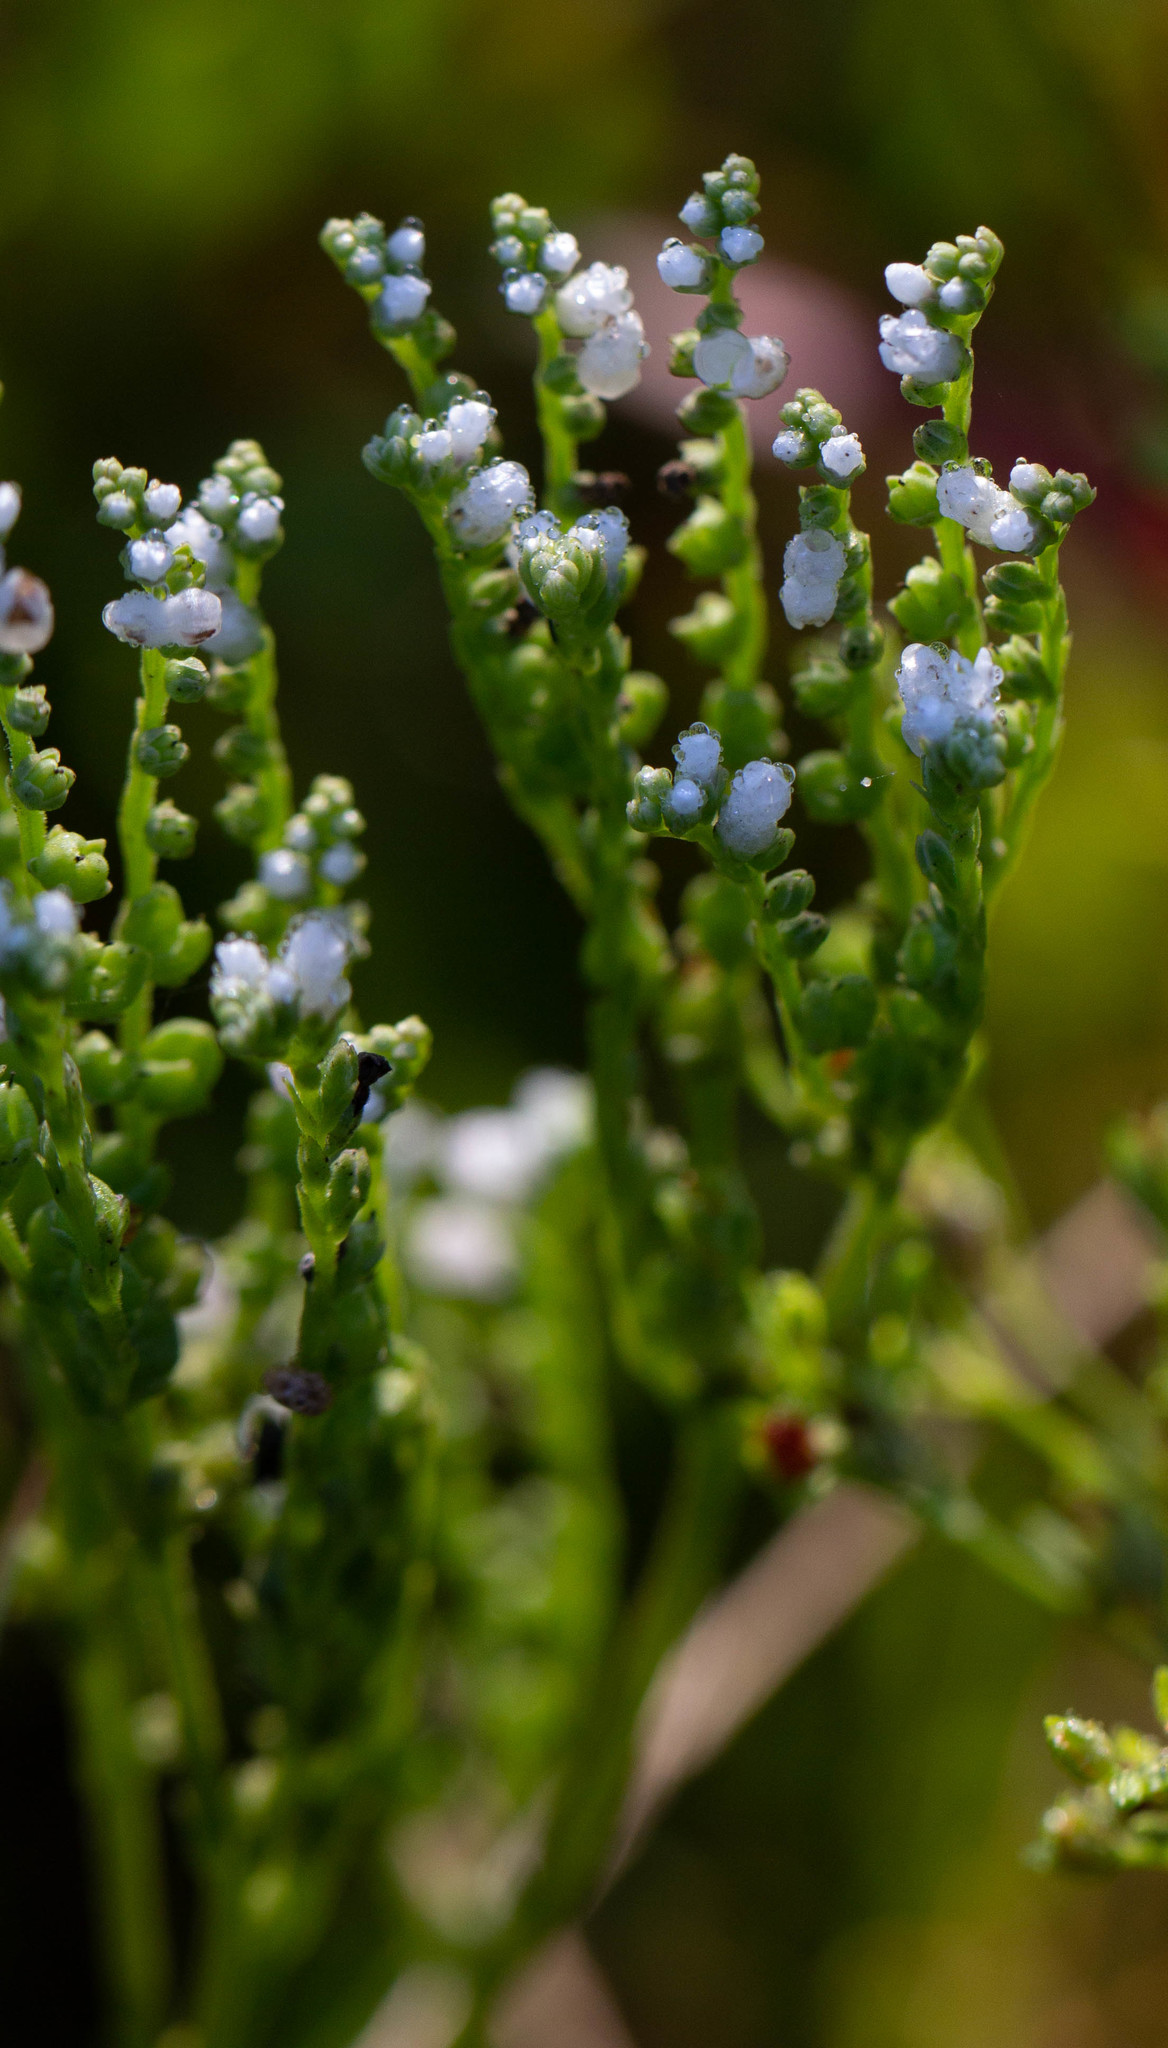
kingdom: Plantae
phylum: Tracheophyta
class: Magnoliopsida
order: Gentianales
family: Loganiaceae
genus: Mitreola
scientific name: Mitreola petiolata
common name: Lax hornpod
